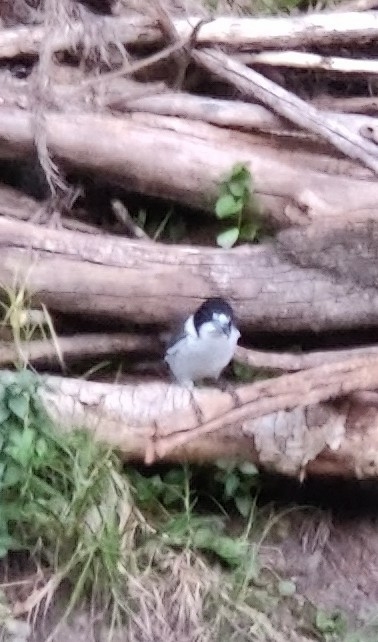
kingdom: Animalia
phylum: Chordata
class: Aves
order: Passeriformes
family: Cracticidae
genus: Cracticus
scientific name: Cracticus torquatus
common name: Grey butcherbird
